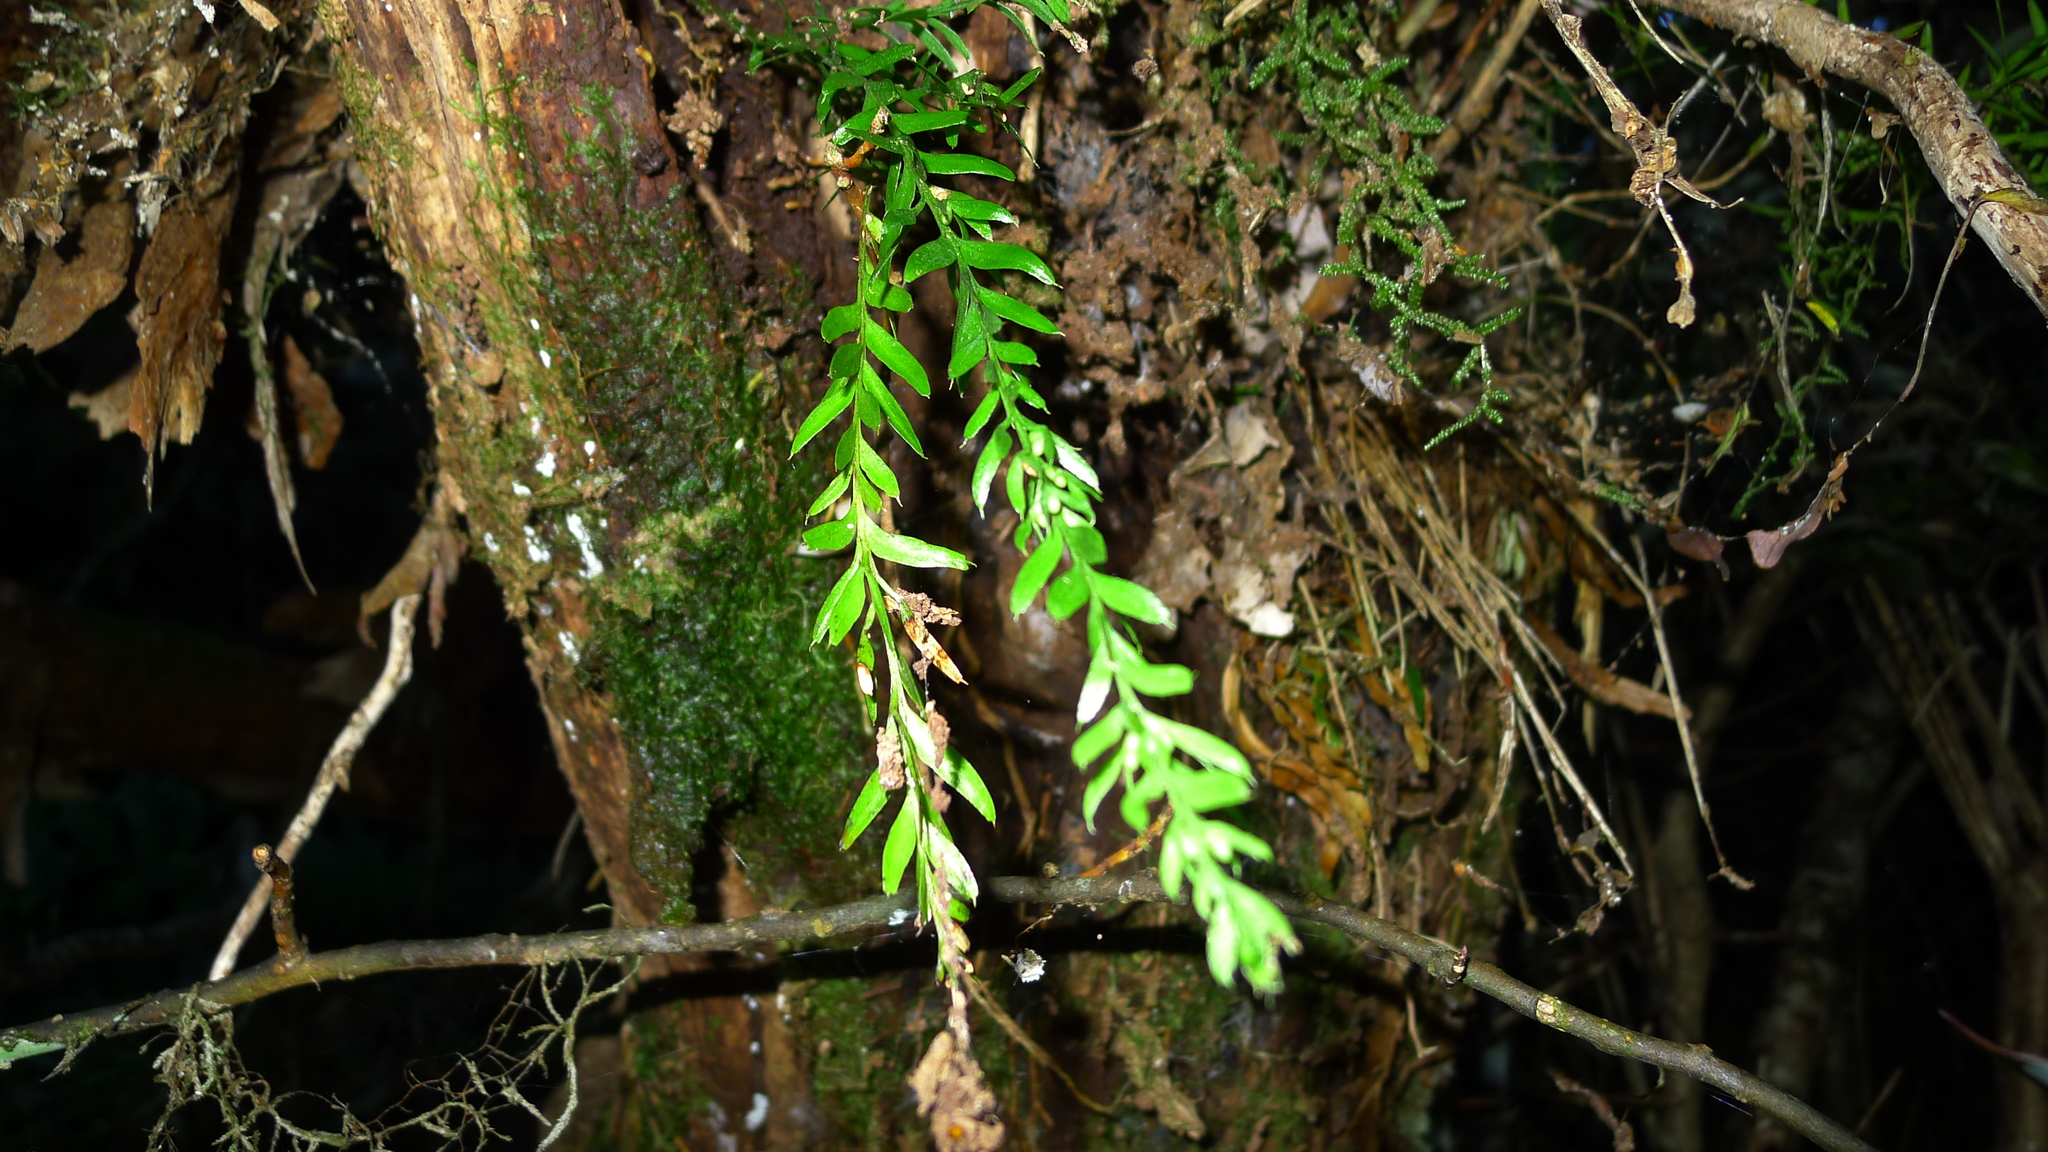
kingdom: Plantae
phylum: Tracheophyta
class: Polypodiopsida
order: Psilotales
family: Psilotaceae
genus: Tmesipteris
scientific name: Tmesipteris
